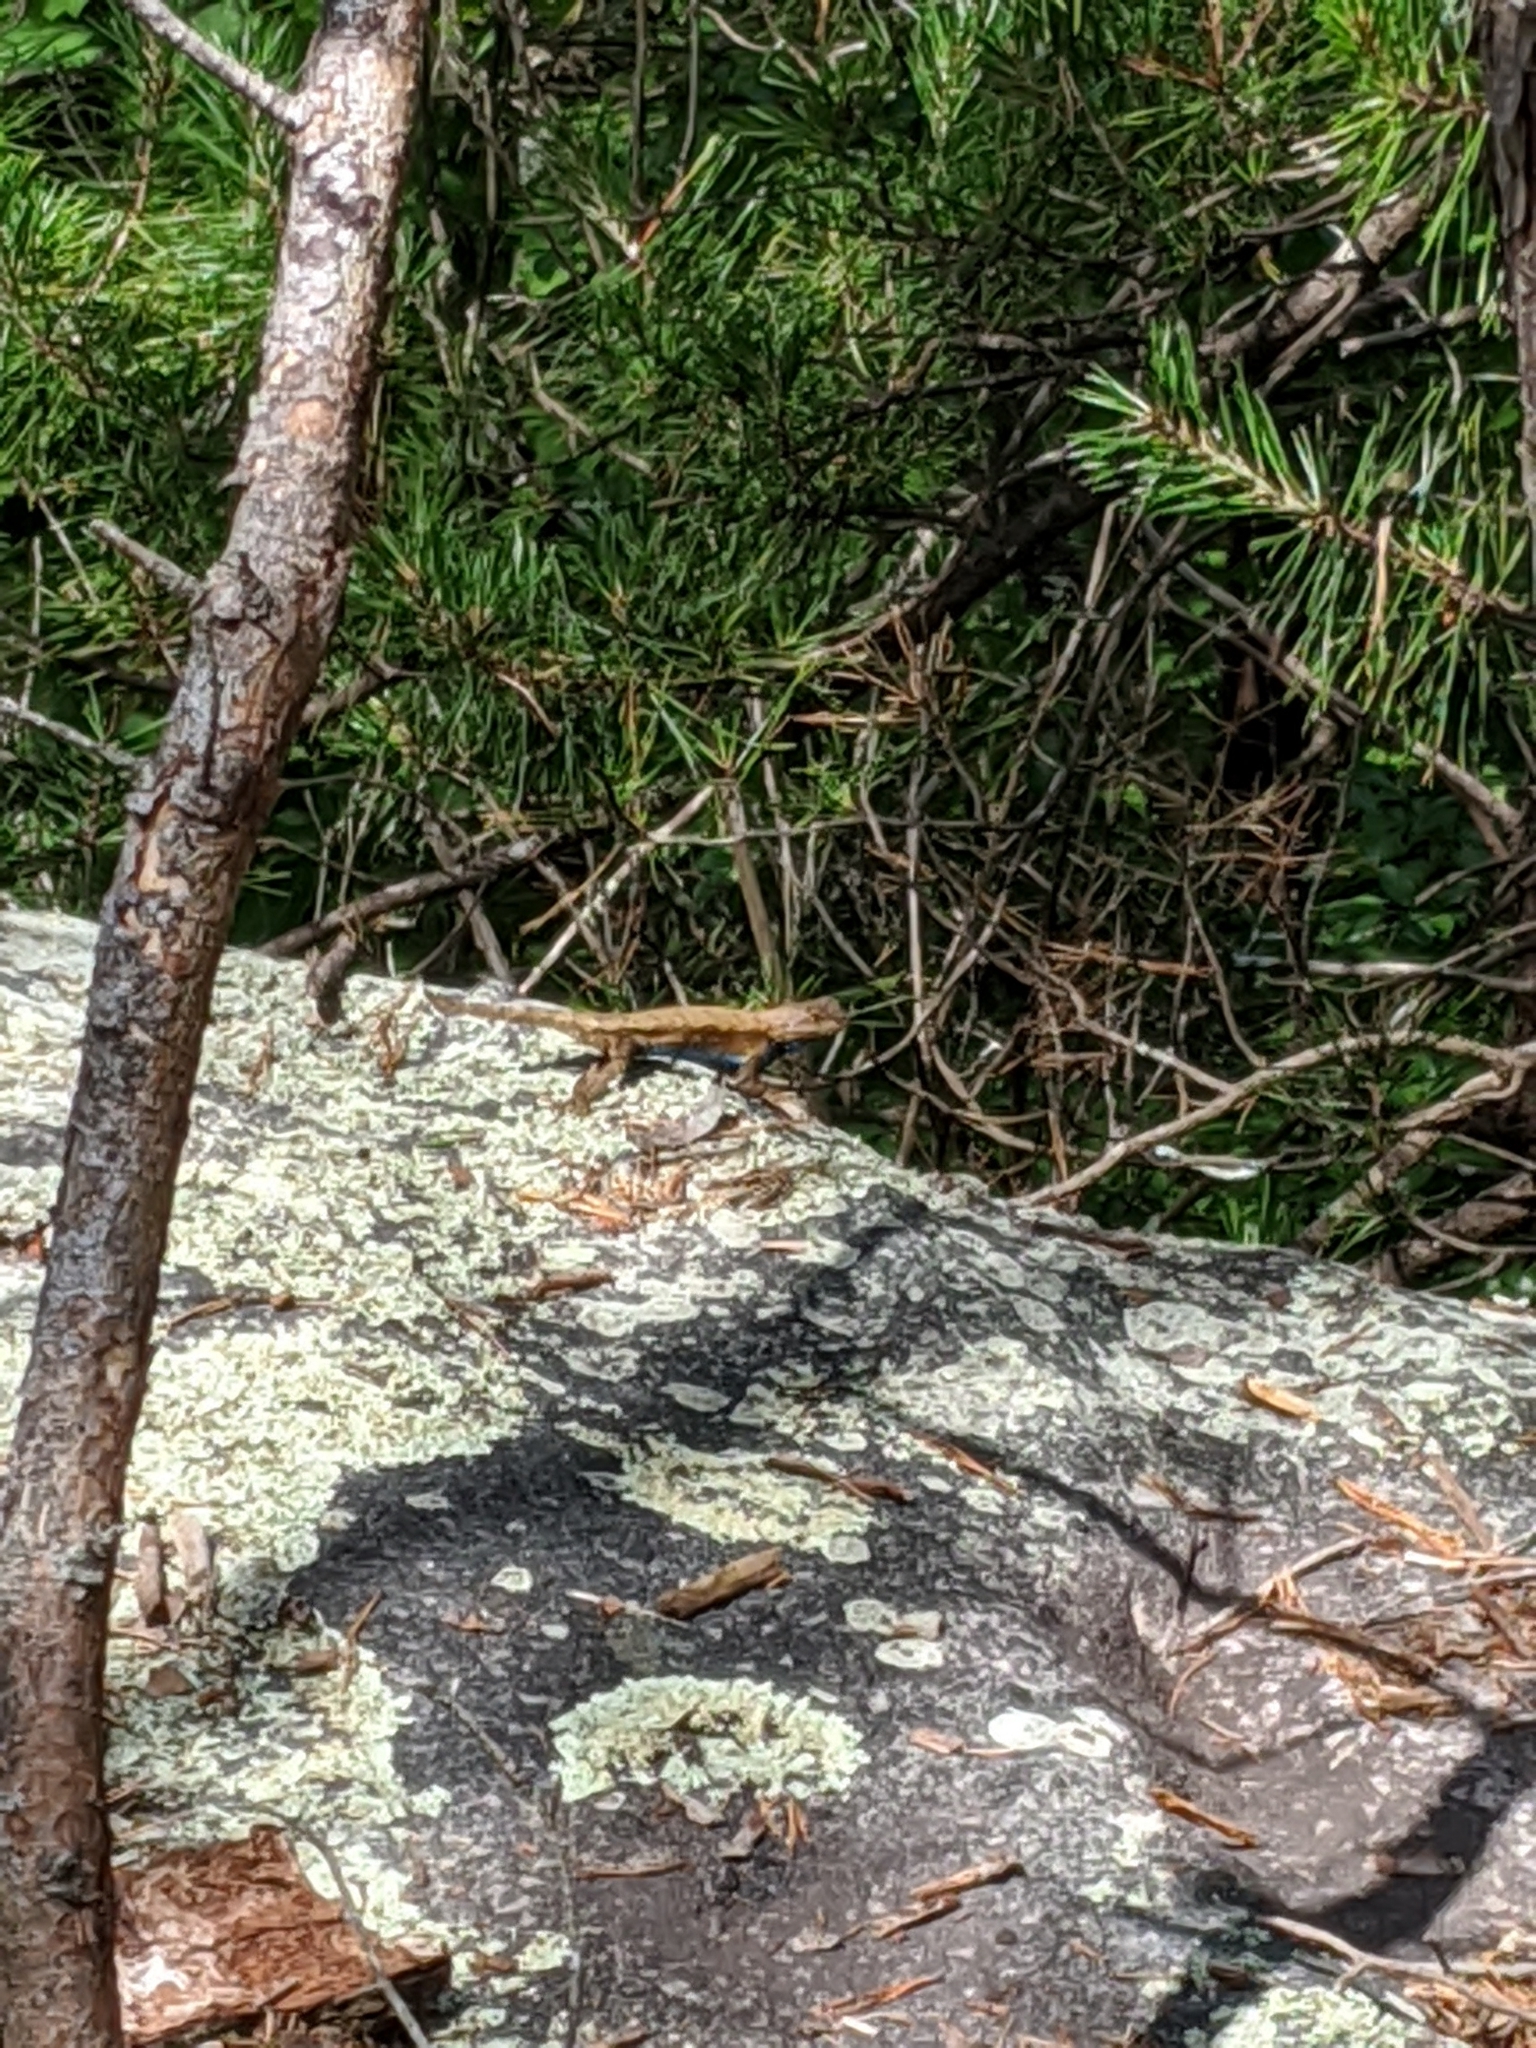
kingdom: Animalia
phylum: Chordata
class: Squamata
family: Phrynosomatidae
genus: Sceloporus
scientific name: Sceloporus undulatus
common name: Eastern fence lizard
